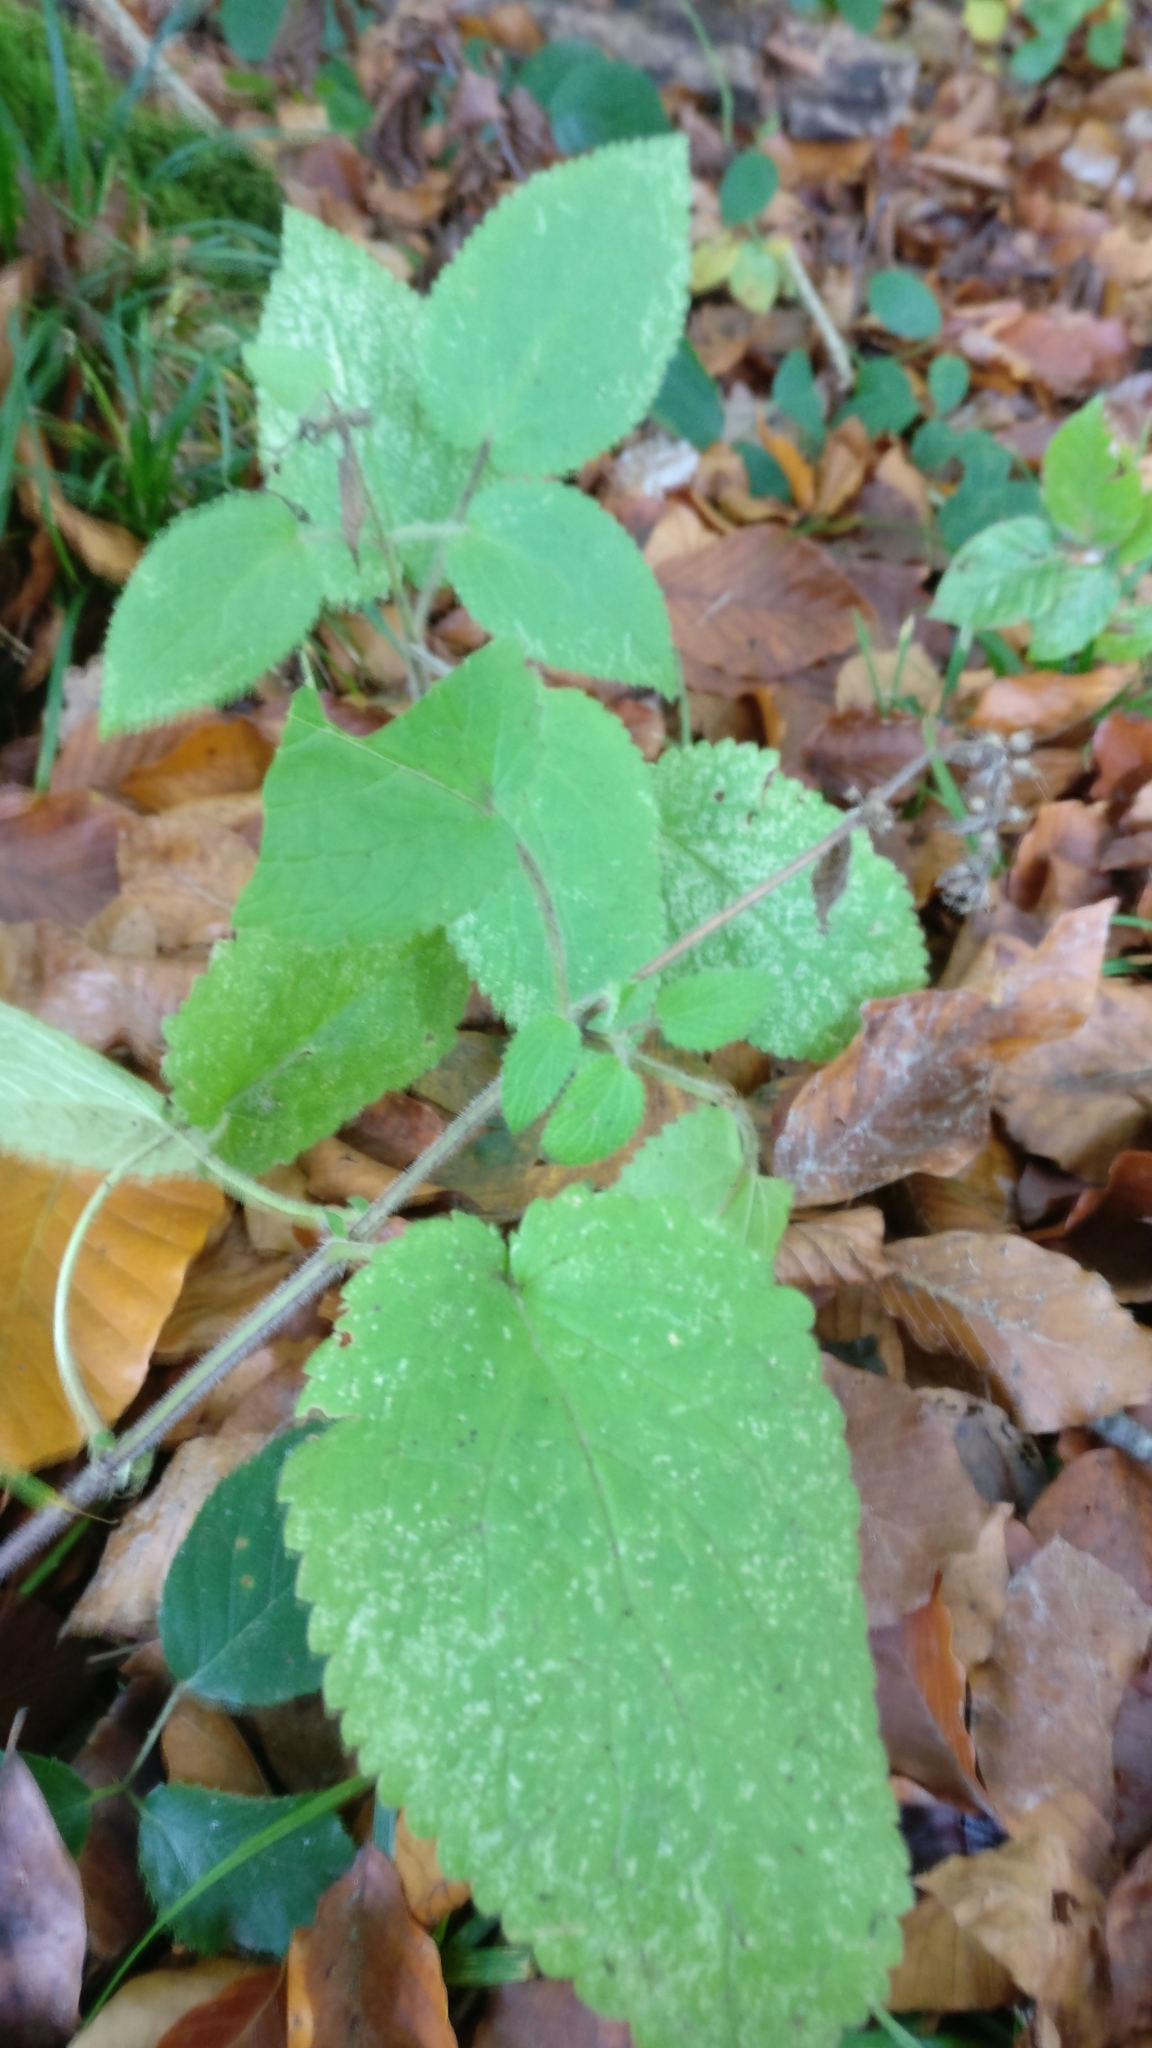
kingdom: Plantae
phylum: Tracheophyta
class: Magnoliopsida
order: Lamiales
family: Lamiaceae
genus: Stachys
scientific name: Stachys sylvatica
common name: Hedge woundwort
